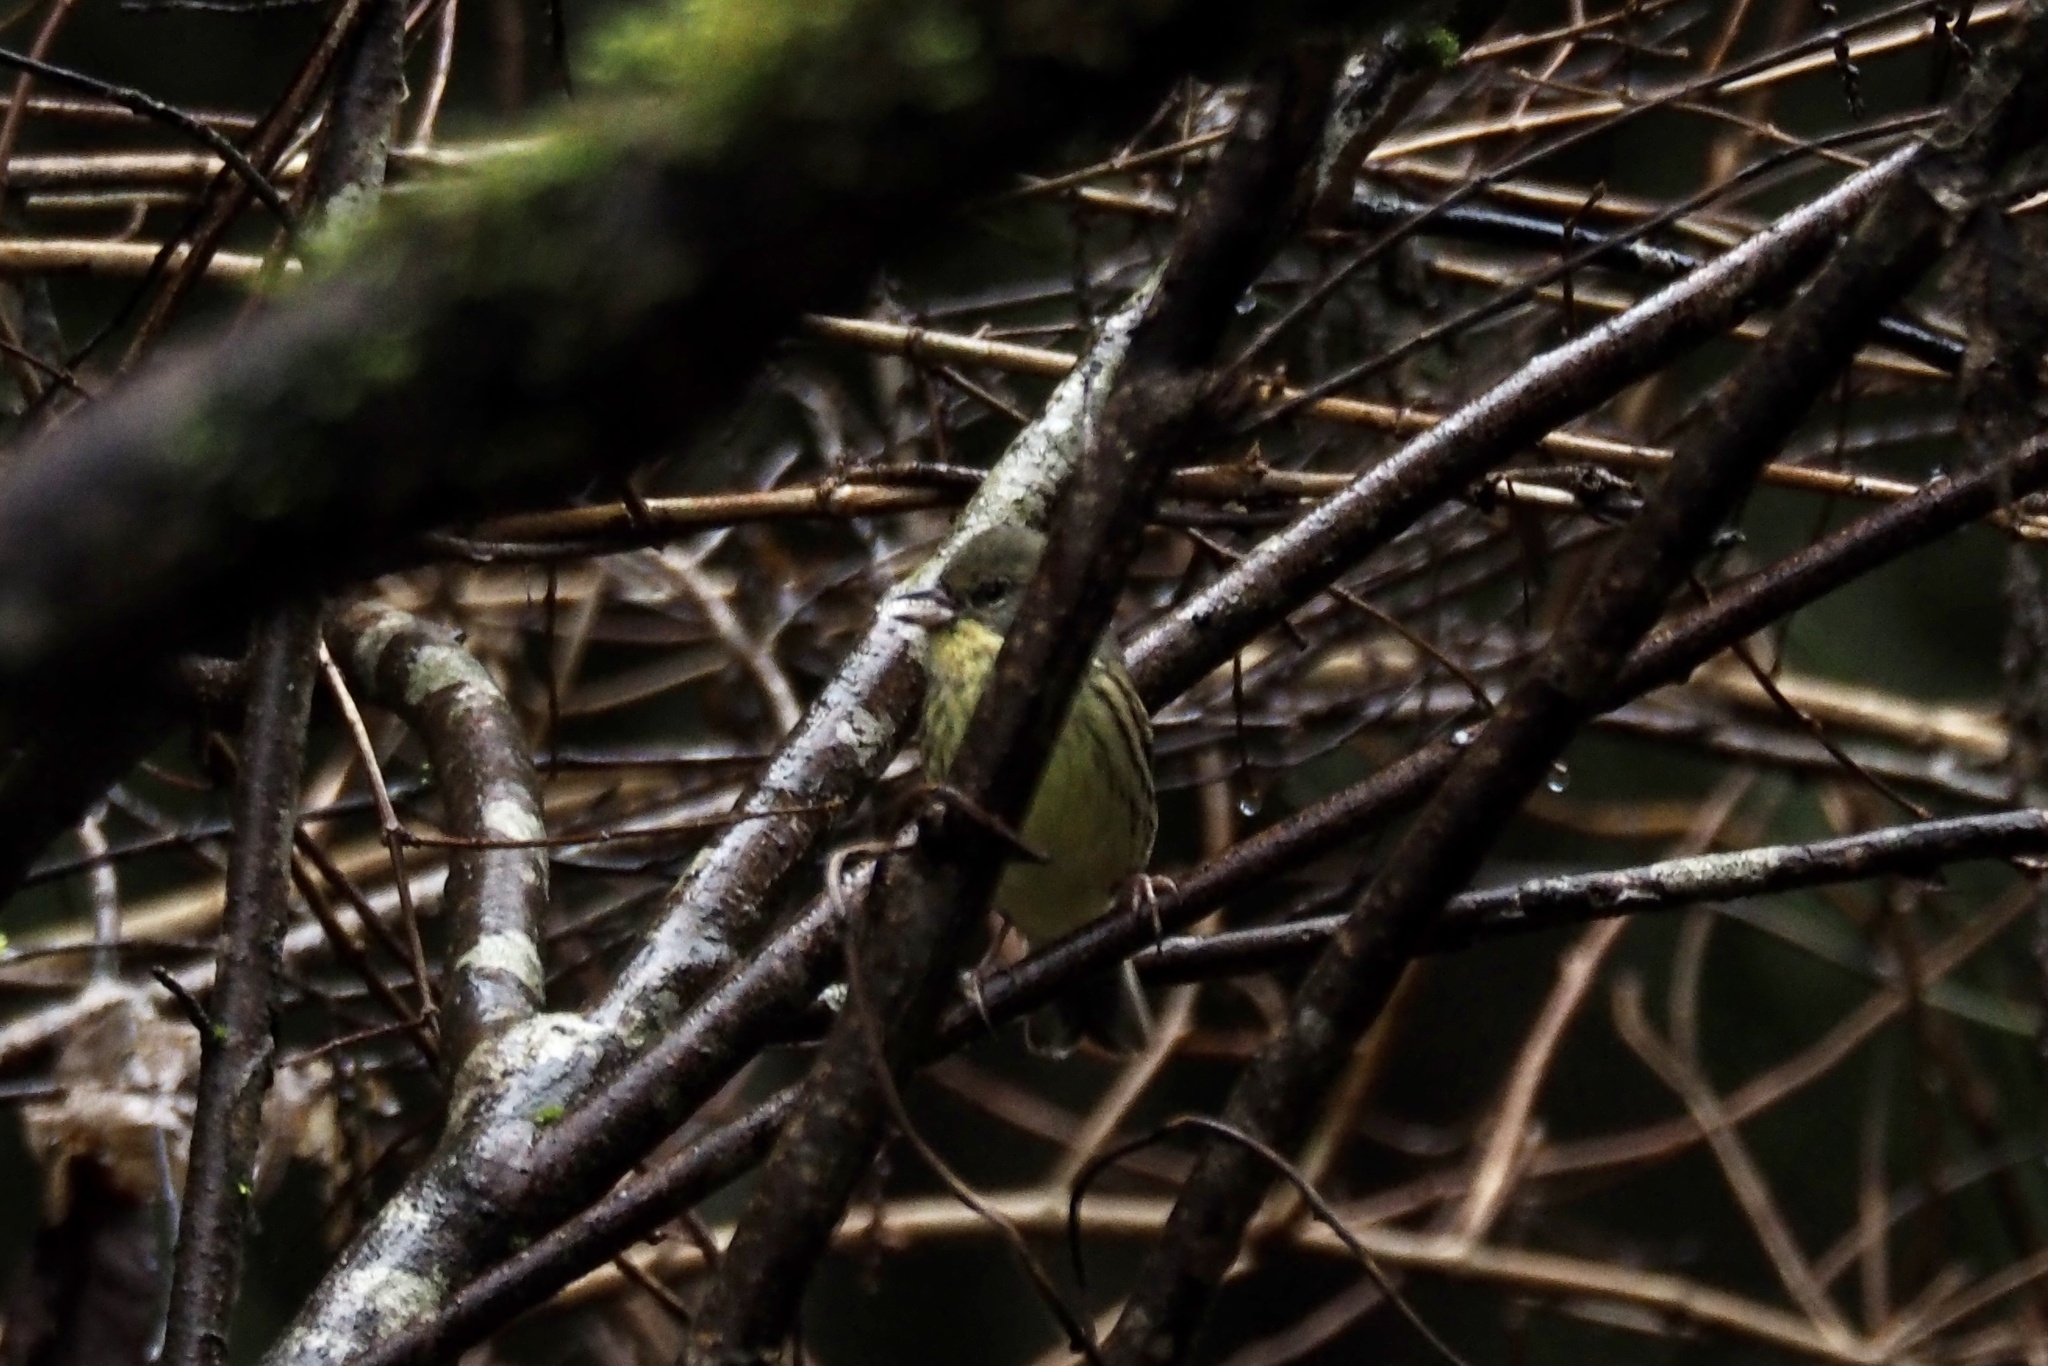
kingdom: Animalia
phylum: Chordata
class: Aves
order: Passeriformes
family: Emberizidae
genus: Emberiza
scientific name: Emberiza personata
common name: Masked bunting
